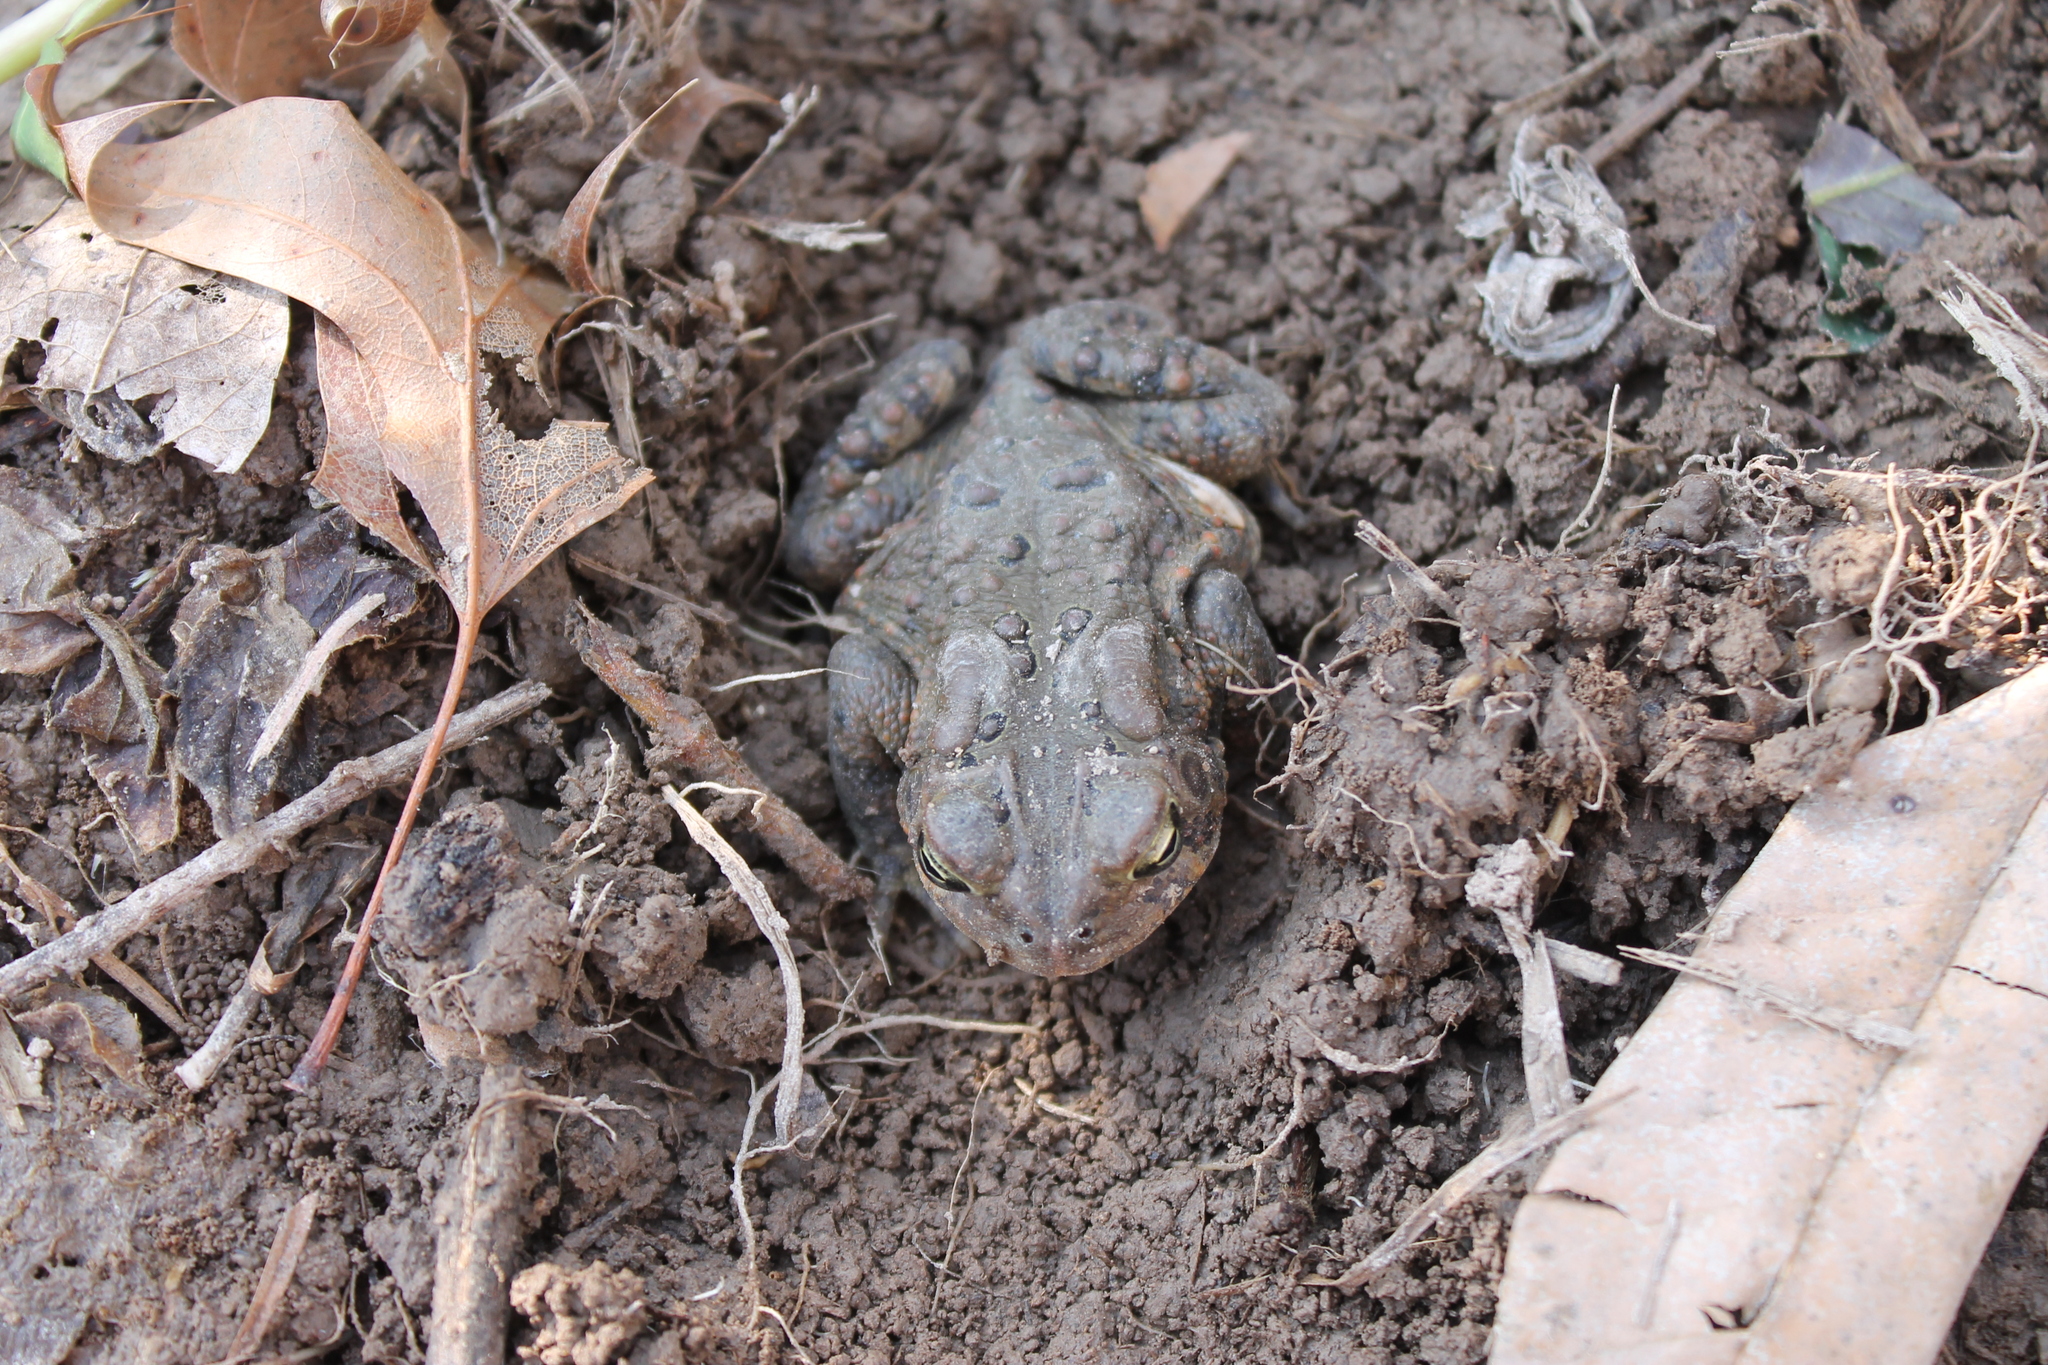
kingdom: Animalia
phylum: Chordata
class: Amphibia
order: Anura
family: Bufonidae
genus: Anaxyrus
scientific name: Anaxyrus americanus
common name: American toad
